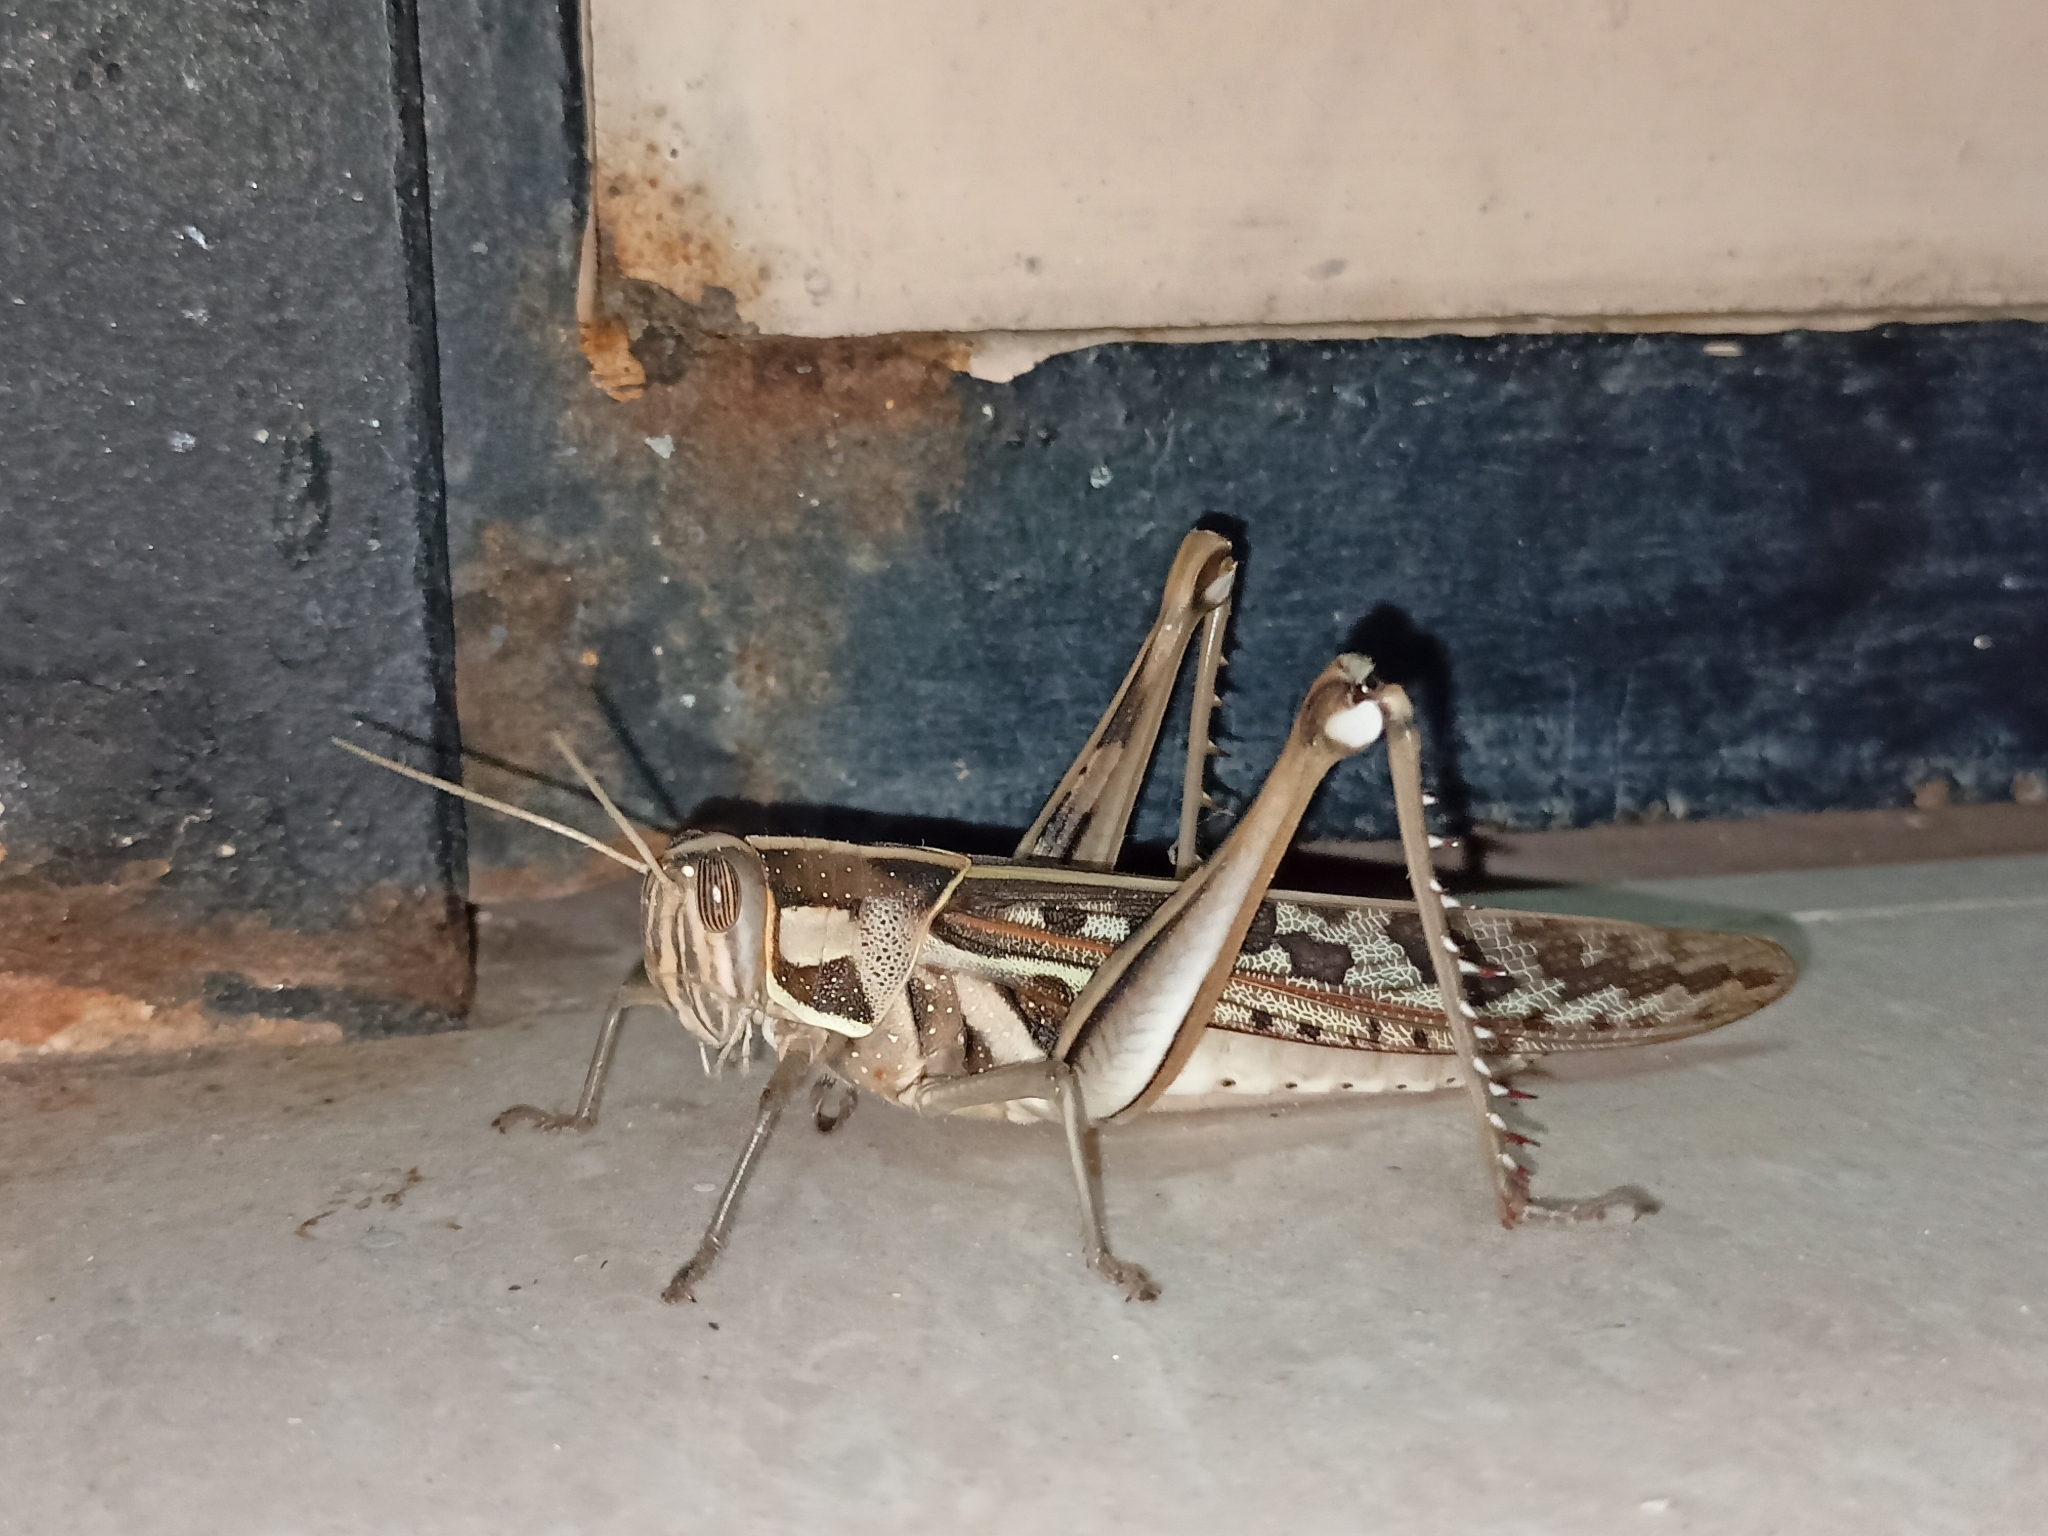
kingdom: Animalia
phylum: Arthropoda
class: Insecta
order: Orthoptera
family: Acrididae
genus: Cyrtacanthacris
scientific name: Cyrtacanthacris tatarica
